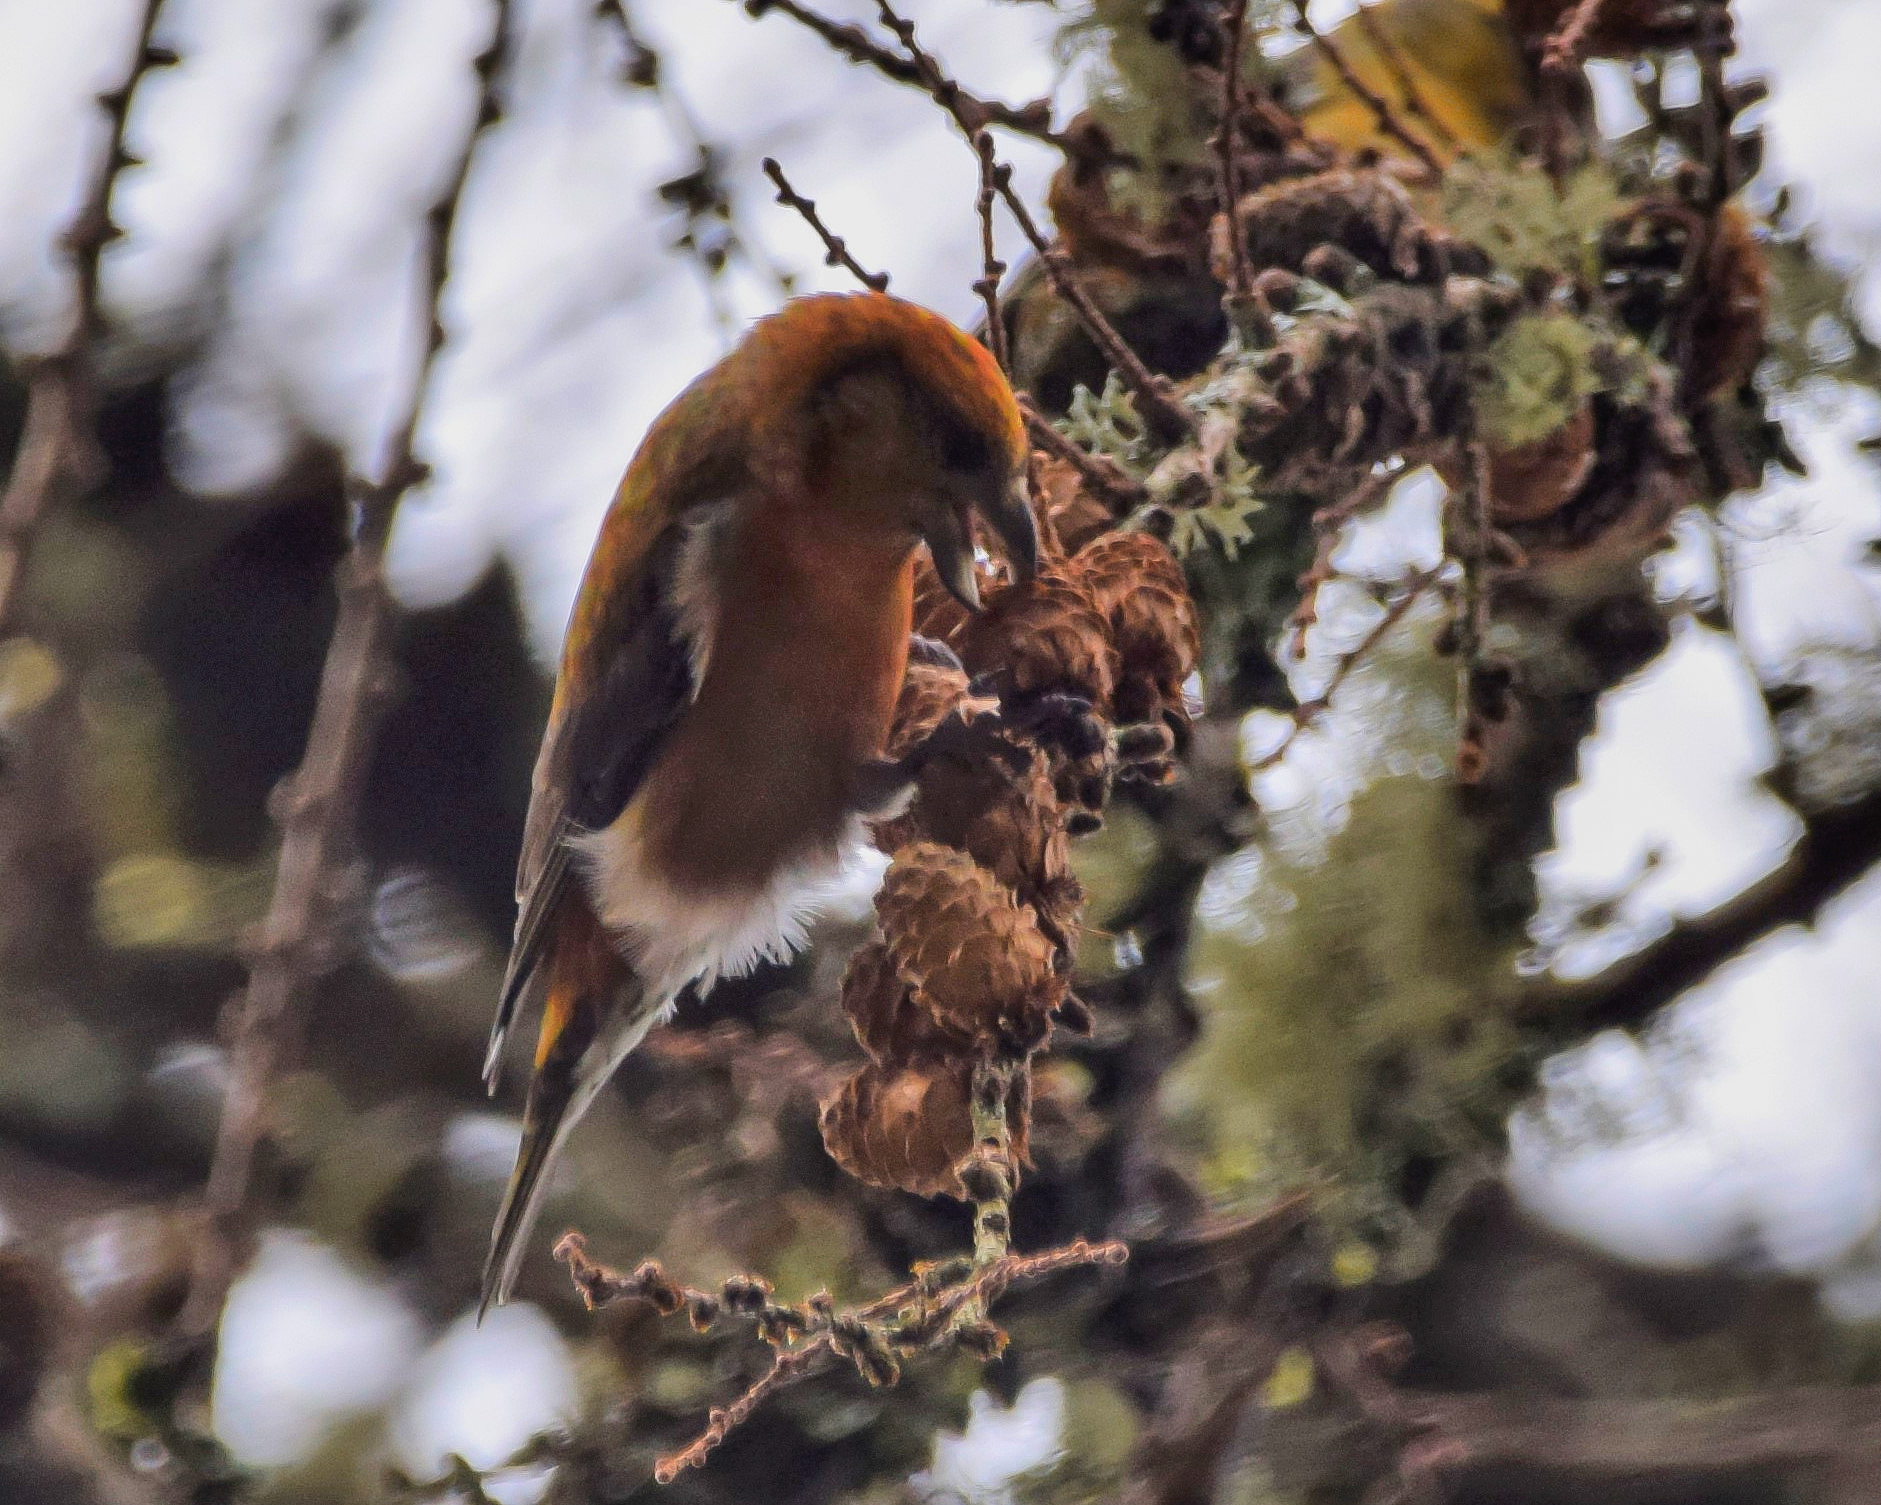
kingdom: Animalia
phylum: Chordata
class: Aves
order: Passeriformes
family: Fringillidae
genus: Loxia
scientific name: Loxia curvirostra
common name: Red crossbill
